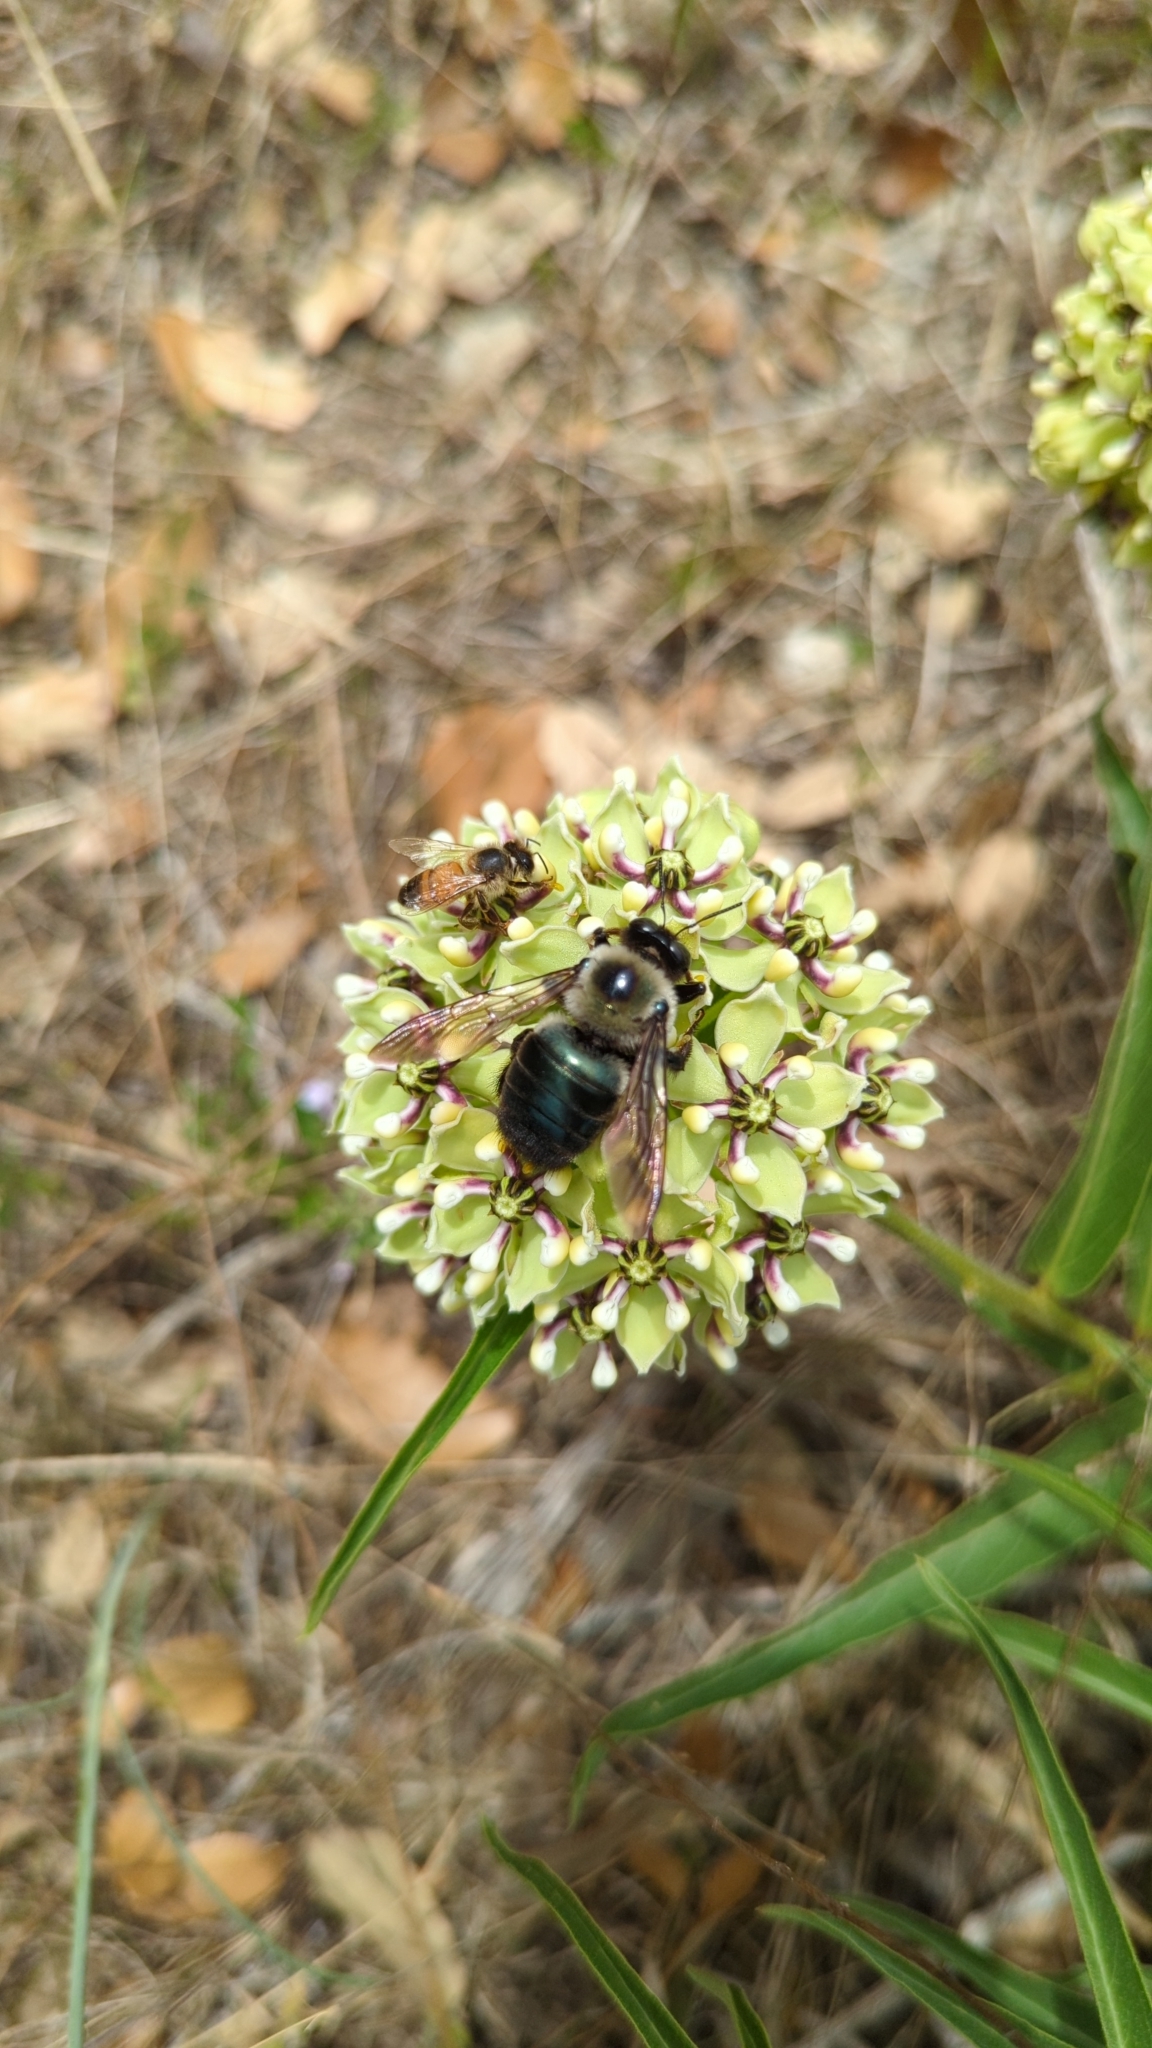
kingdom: Animalia
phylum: Arthropoda
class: Insecta
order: Hymenoptera
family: Apidae
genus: Xylocopa
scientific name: Xylocopa virginica
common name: Carpenter bee
